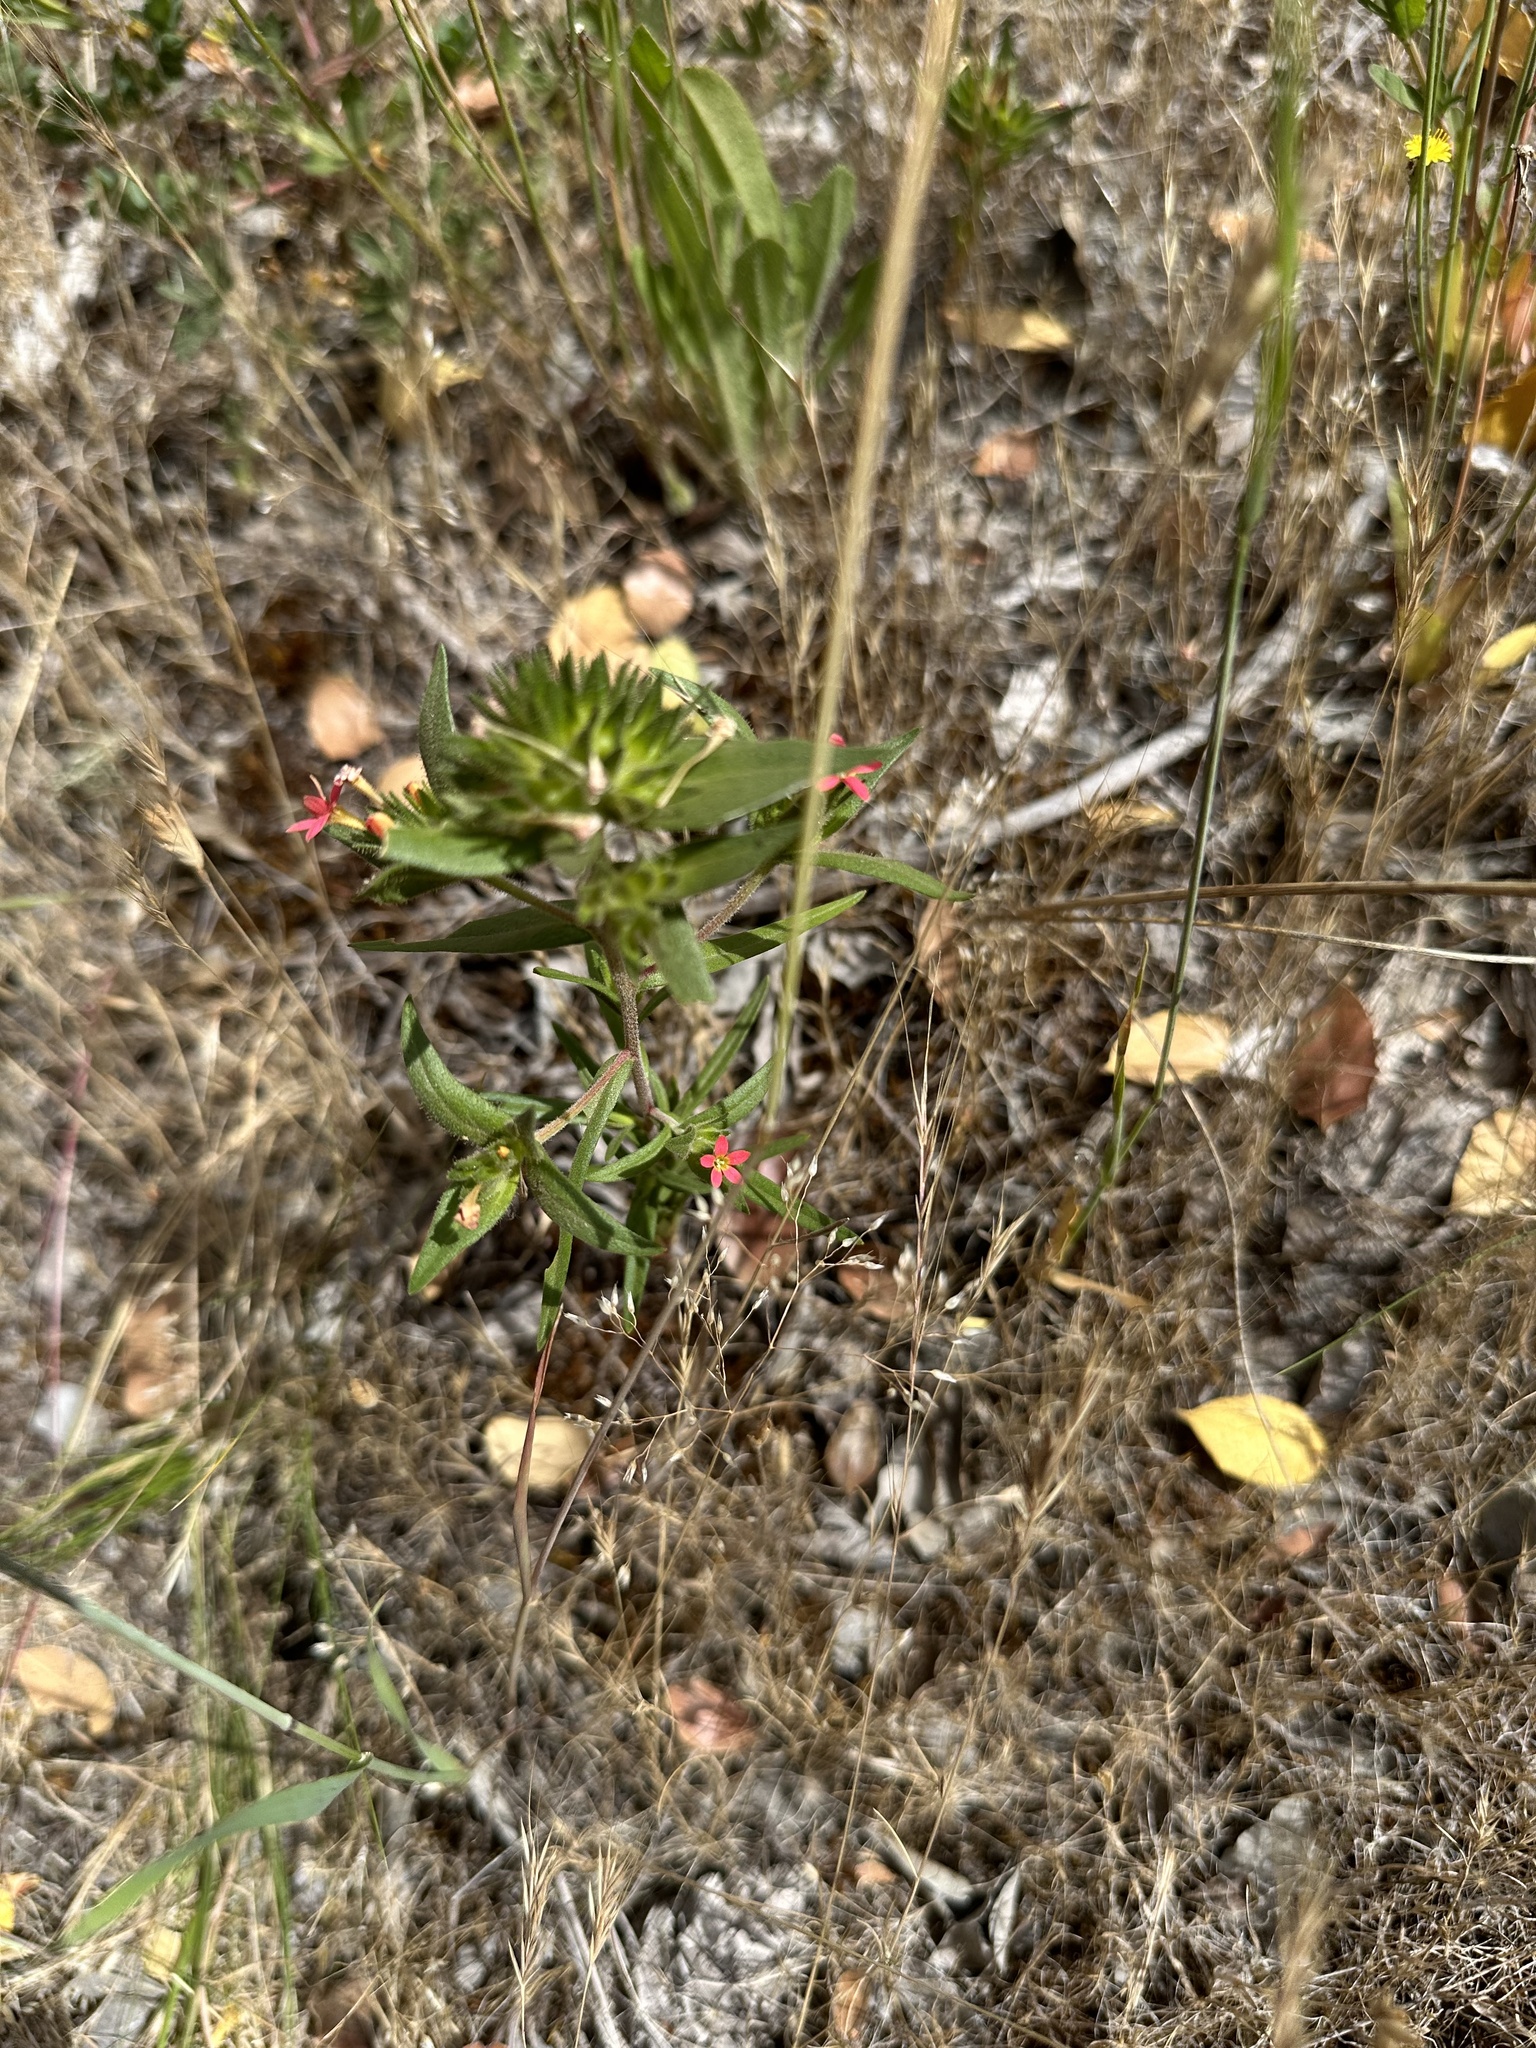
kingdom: Plantae
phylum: Tracheophyta
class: Magnoliopsida
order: Ericales
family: Polemoniaceae
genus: Collomia
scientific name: Collomia biflora
